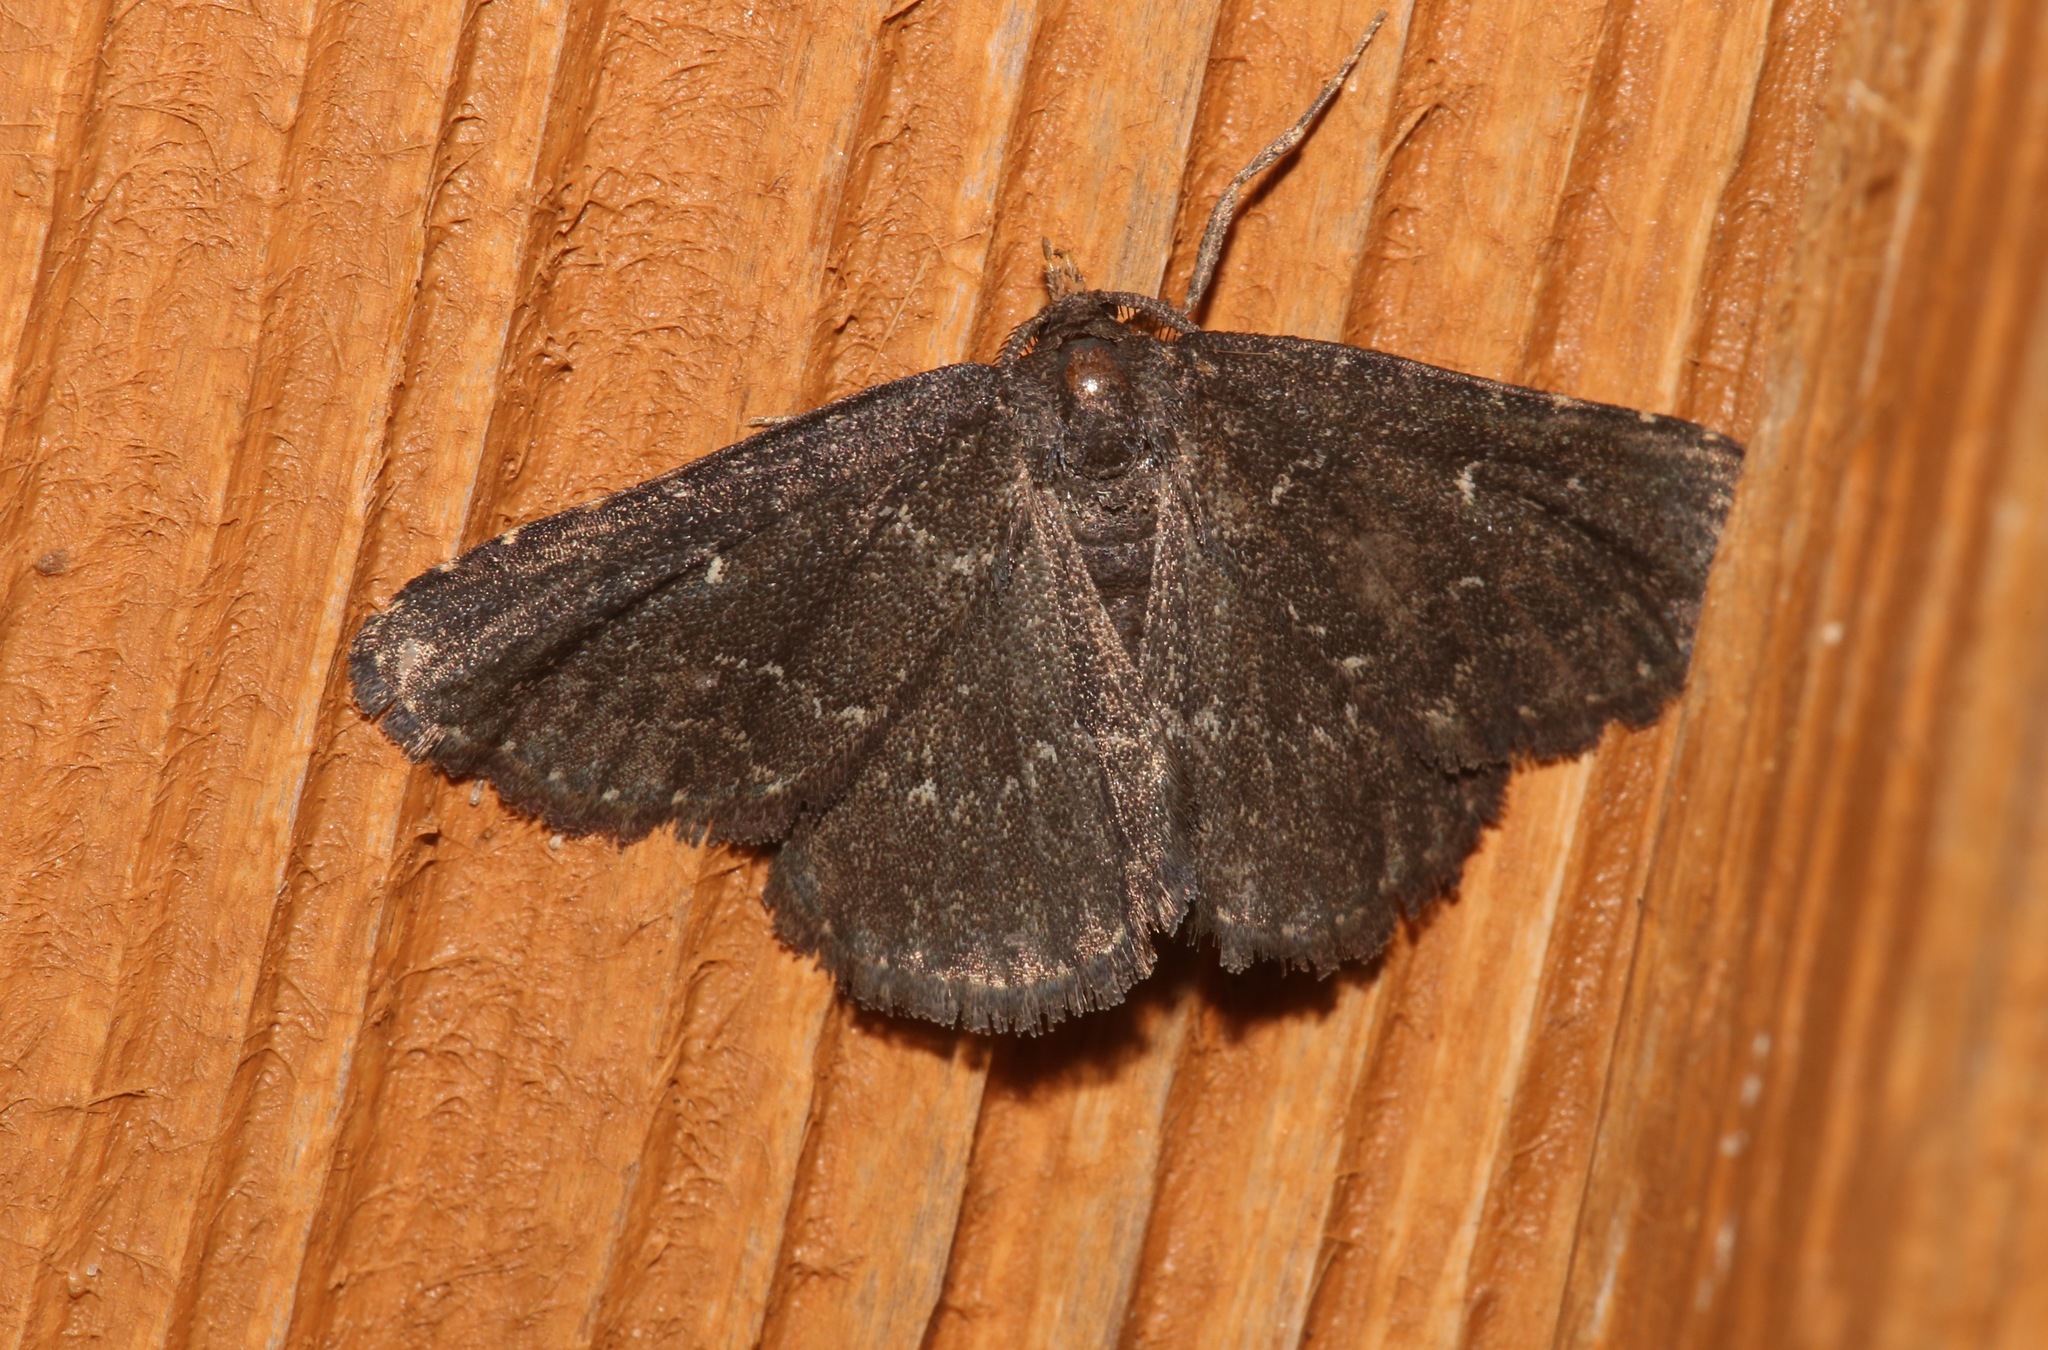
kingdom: Animalia
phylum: Arthropoda
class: Insecta
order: Lepidoptera
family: Erebidae
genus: Prosoparia
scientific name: Prosoparia floridana
